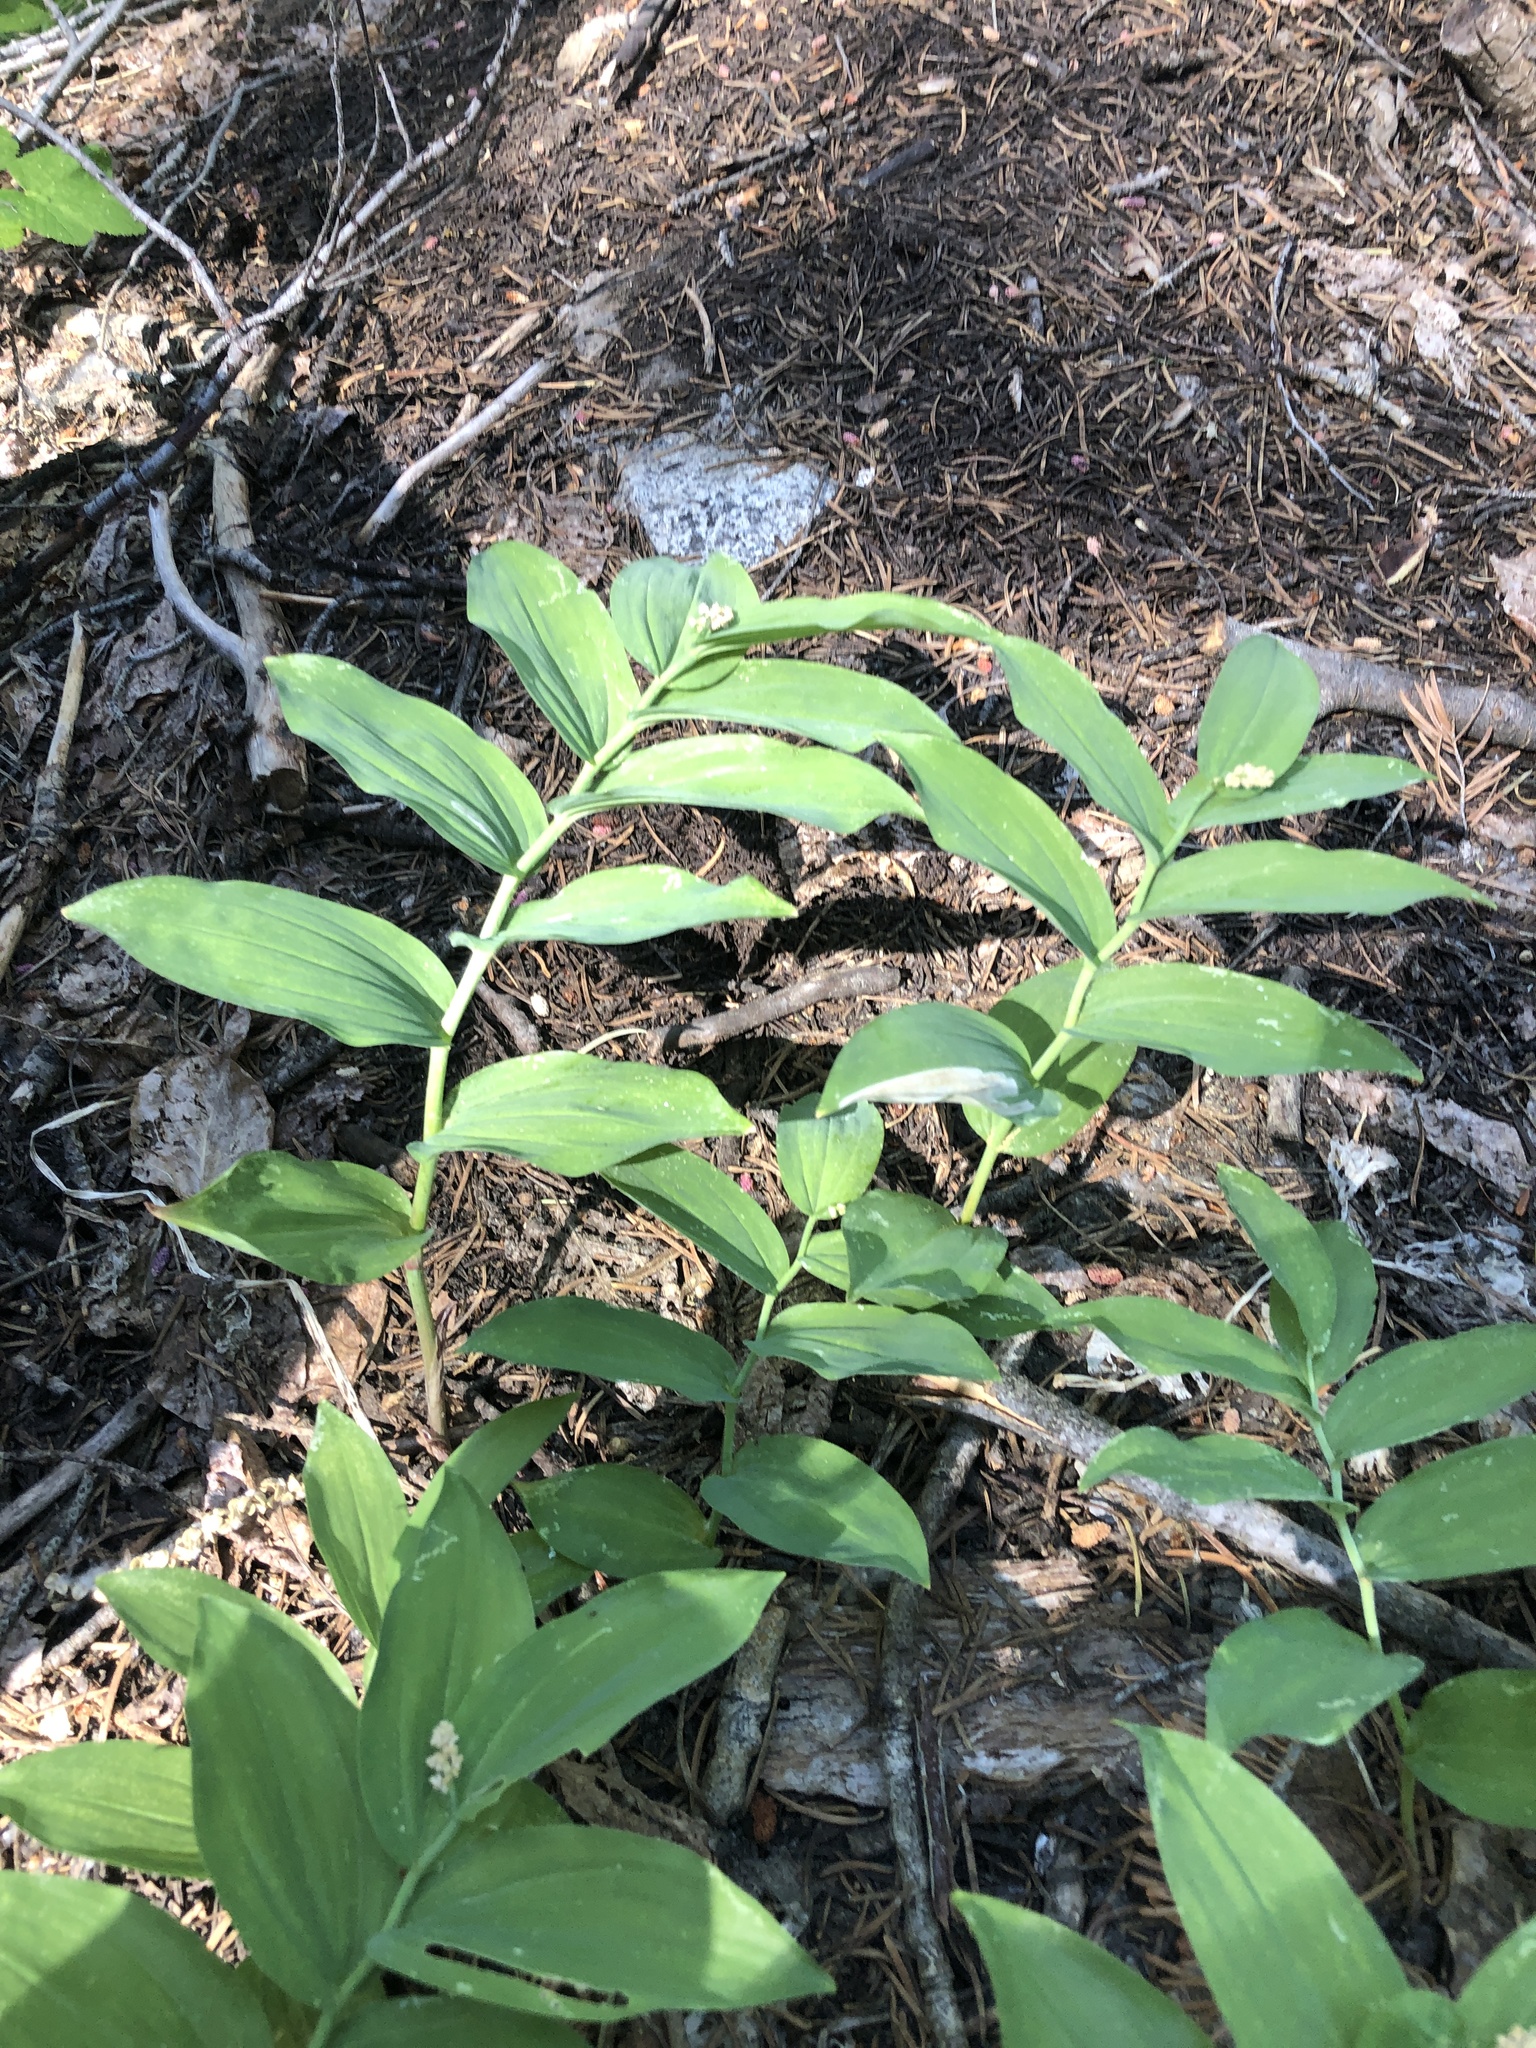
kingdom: Plantae
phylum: Tracheophyta
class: Liliopsida
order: Asparagales
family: Asparagaceae
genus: Maianthemum
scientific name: Maianthemum racemosum
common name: False spikenard
